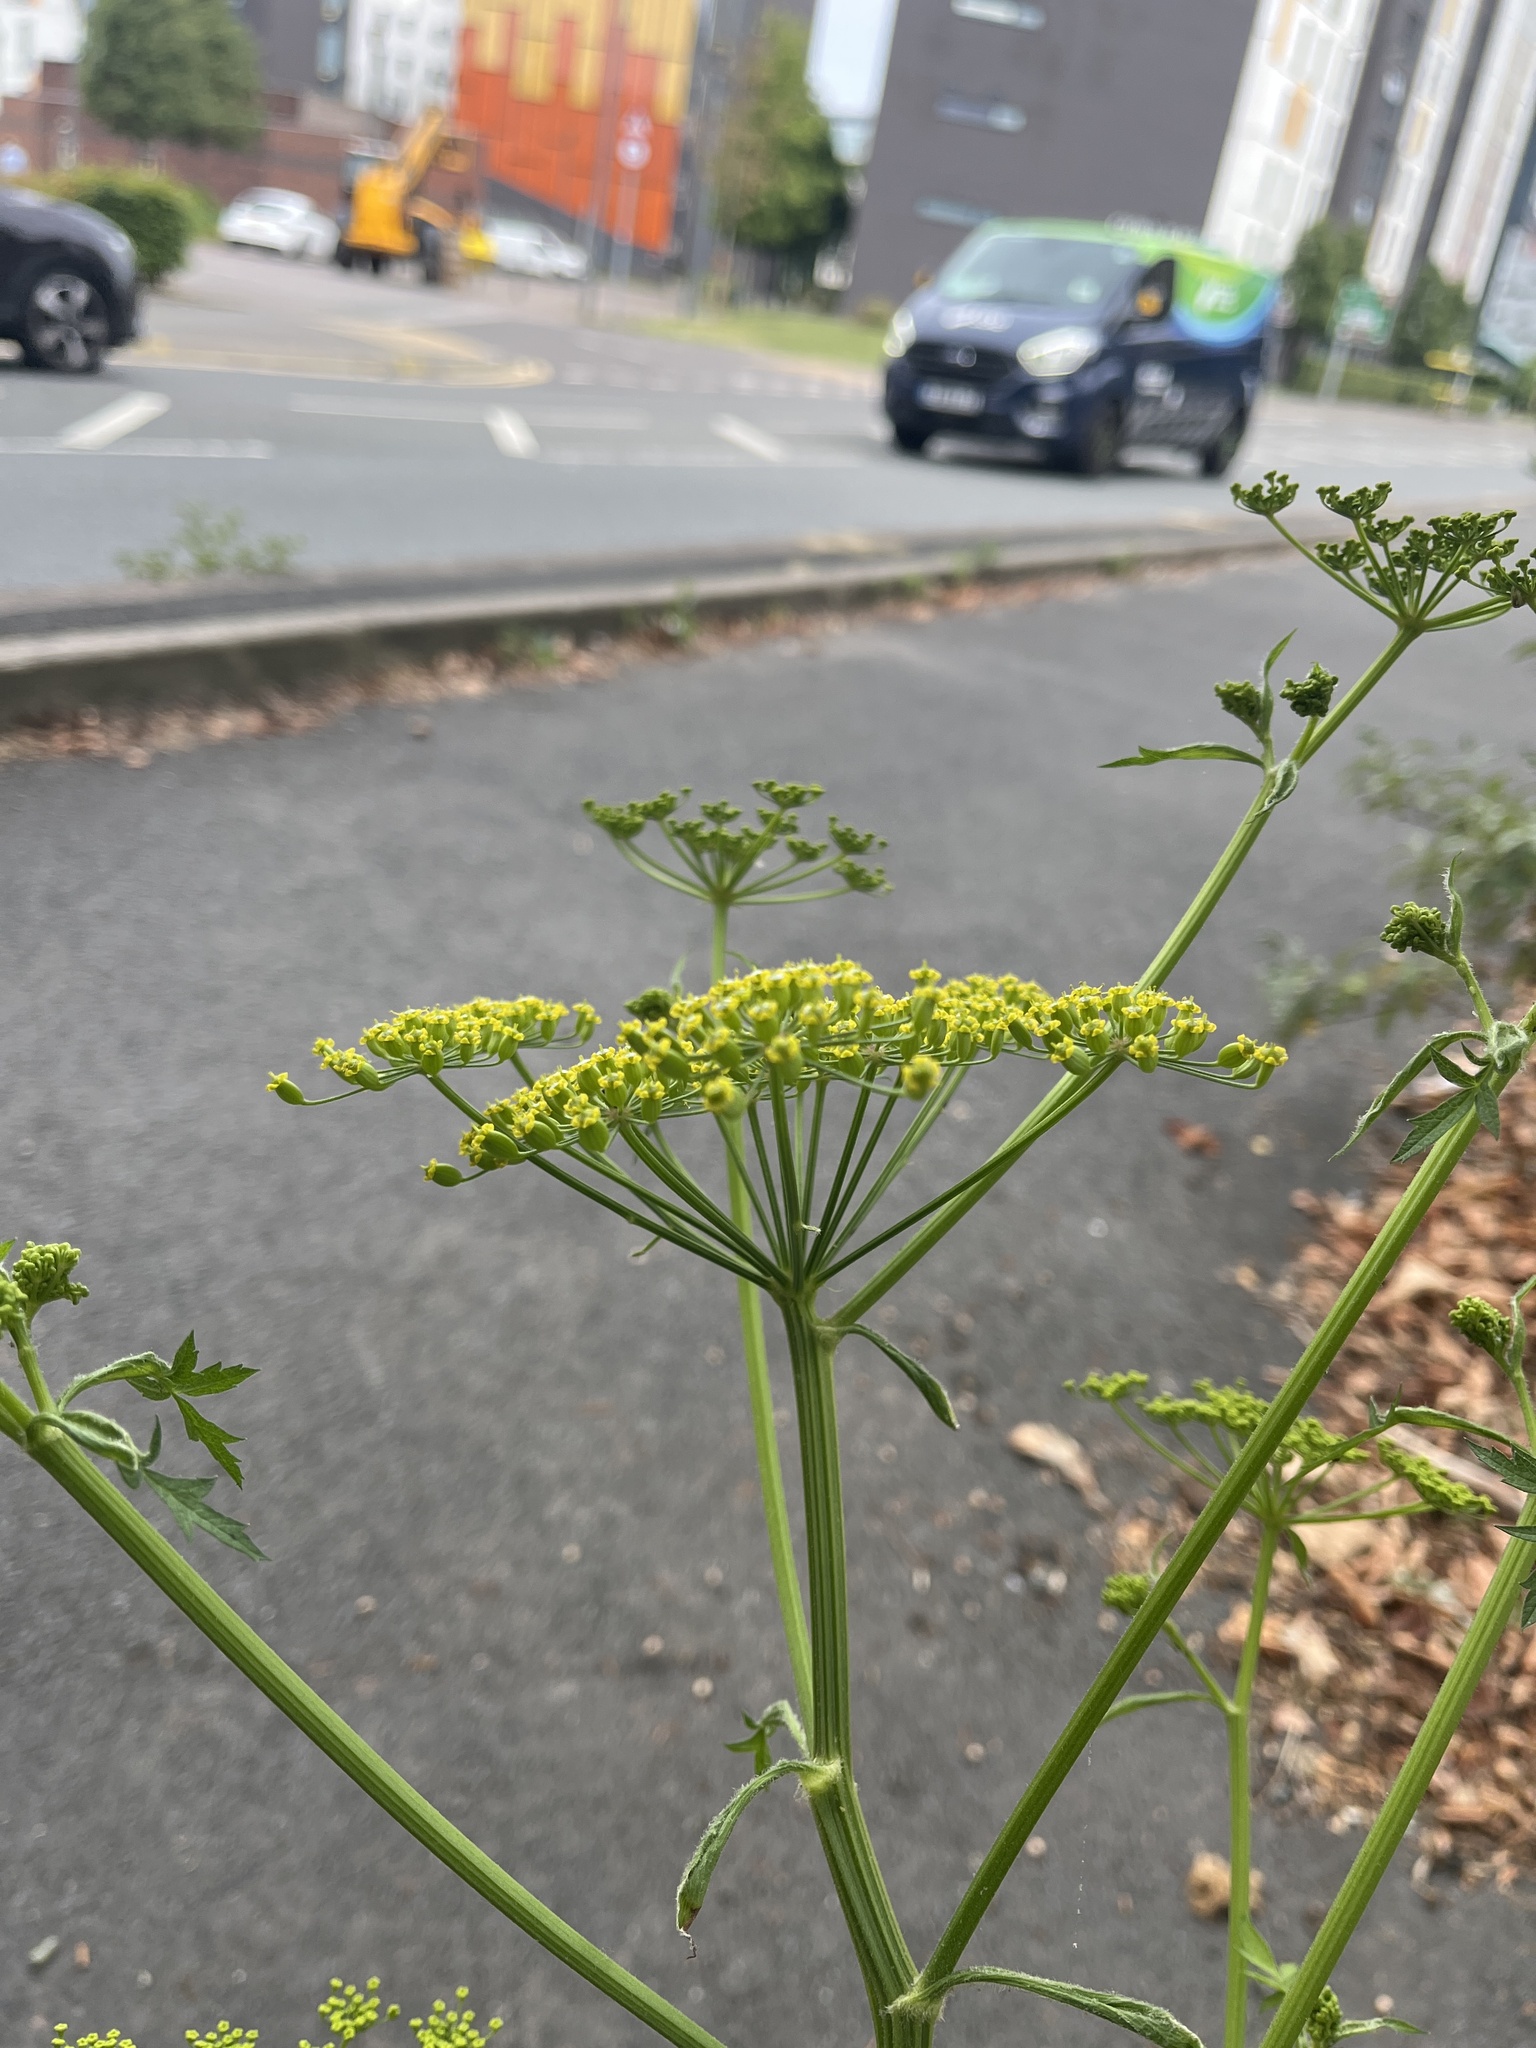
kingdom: Plantae
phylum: Tracheophyta
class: Magnoliopsida
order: Apiales
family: Apiaceae
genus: Pastinaca
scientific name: Pastinaca sativa
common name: Wild parsnip
